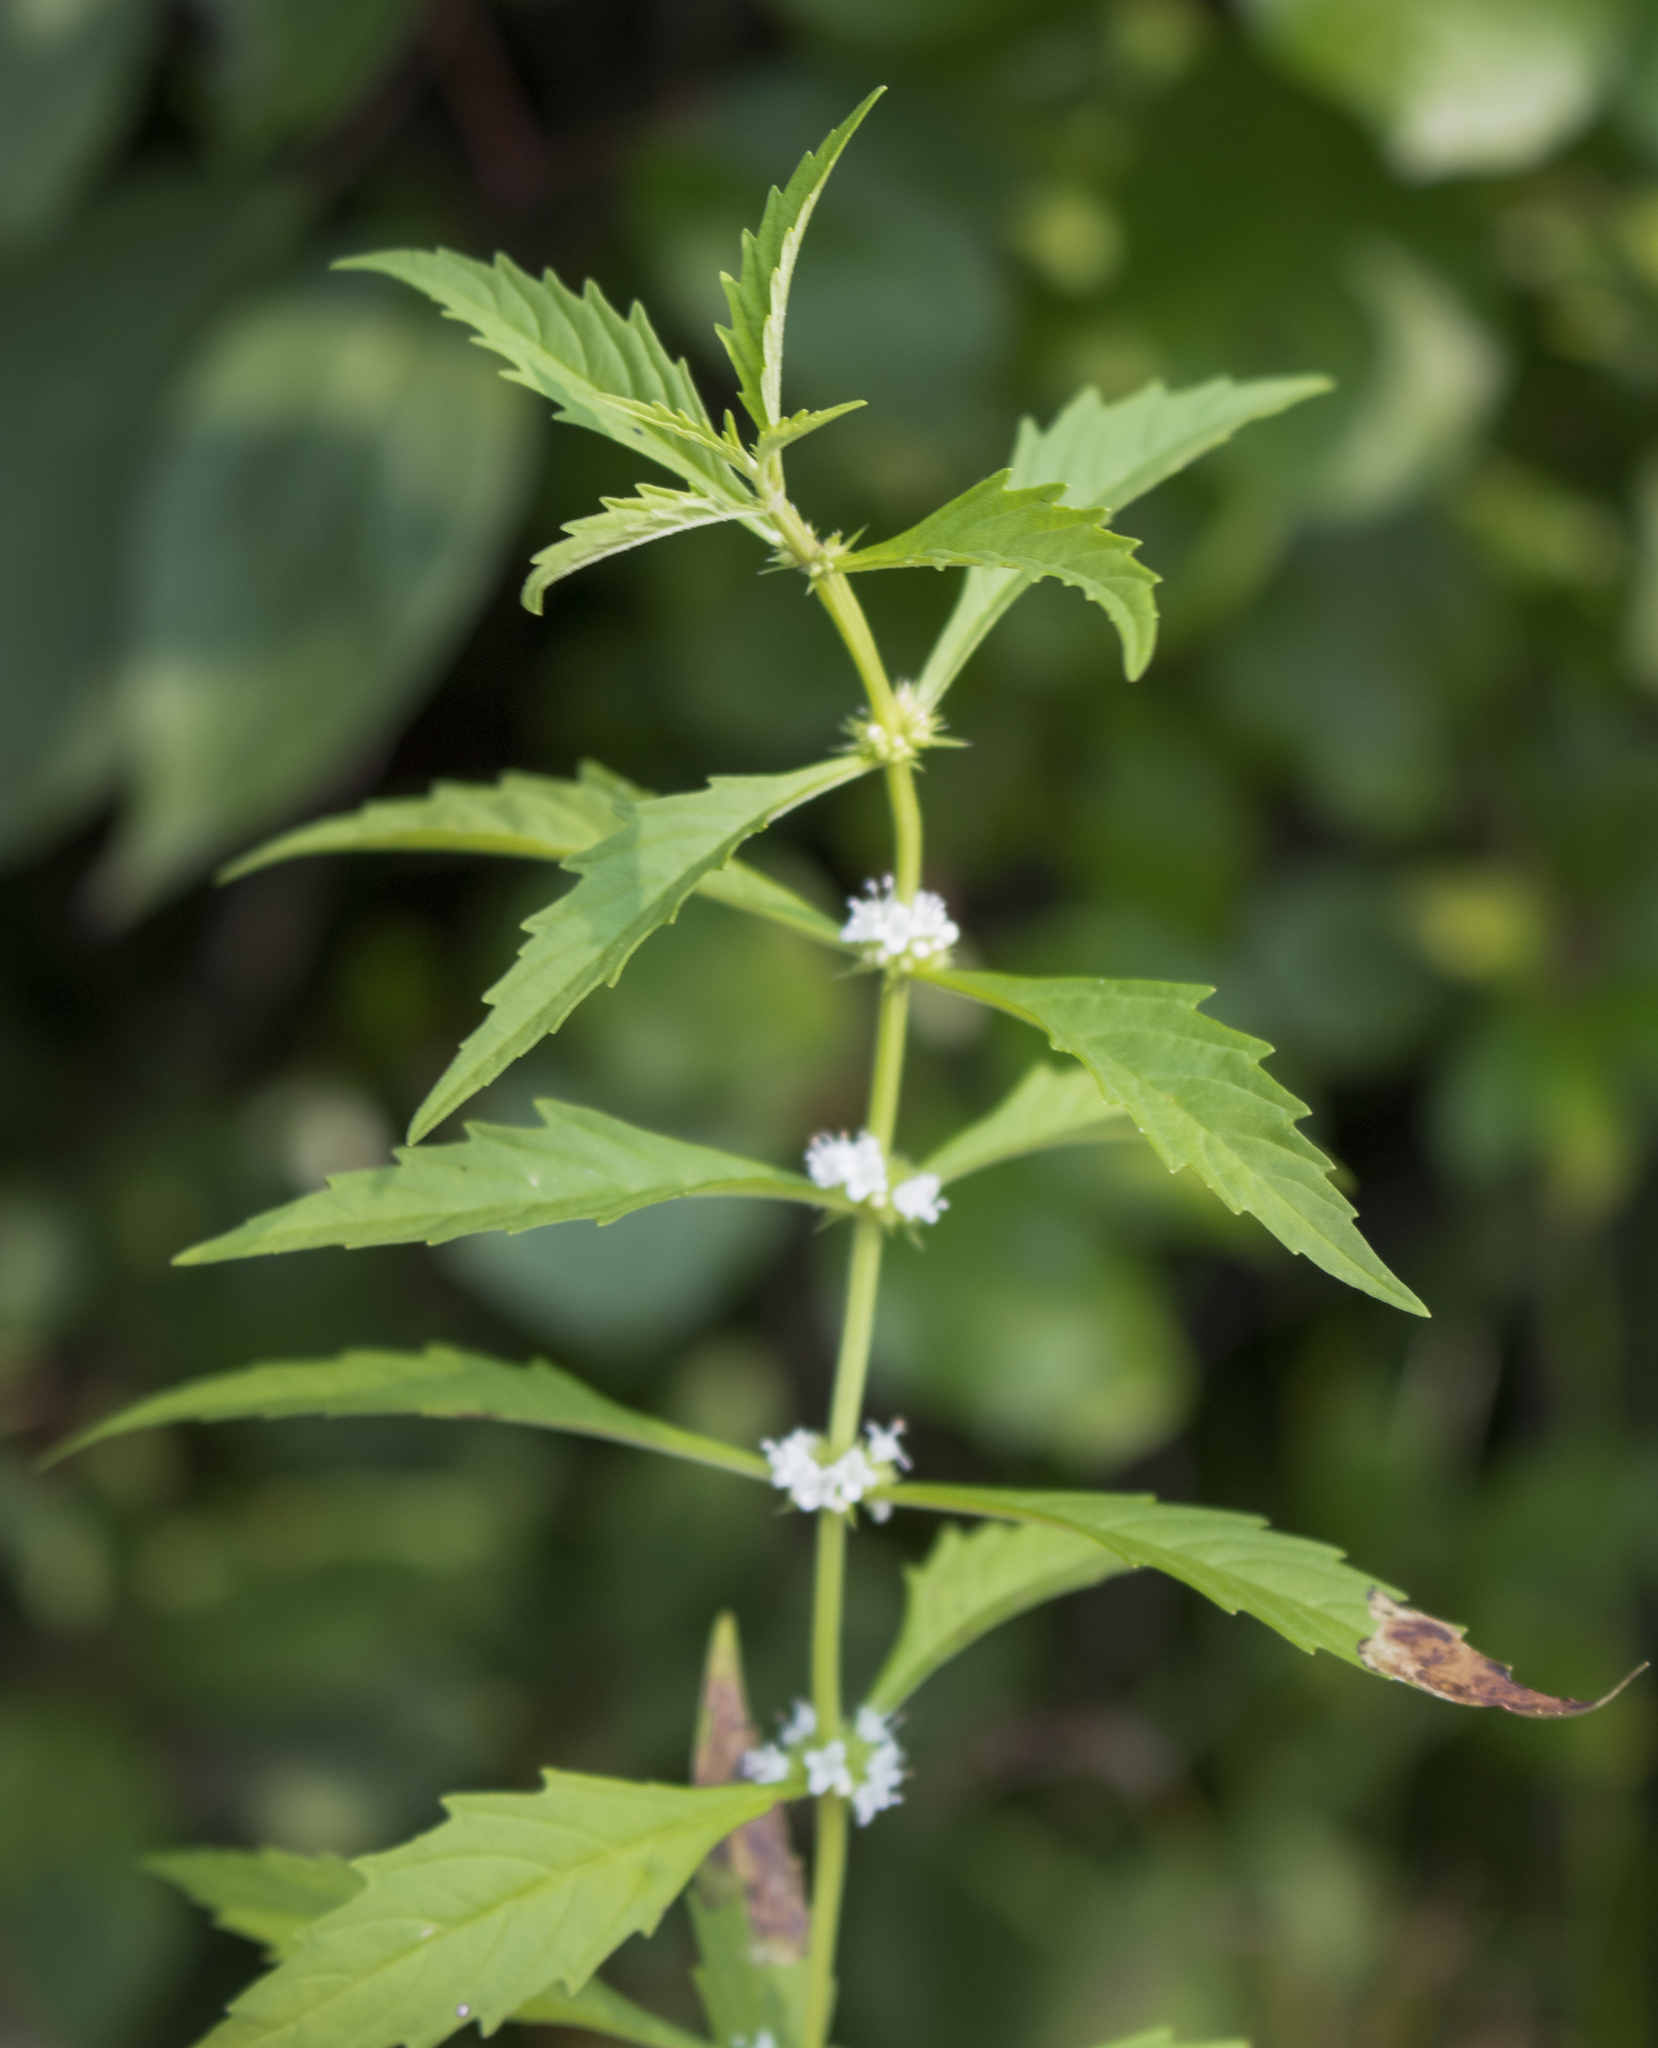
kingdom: Plantae
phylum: Tracheophyta
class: Magnoliopsida
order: Lamiales
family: Lamiaceae
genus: Lycopus
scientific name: Lycopus americanus
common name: American bugleweed
